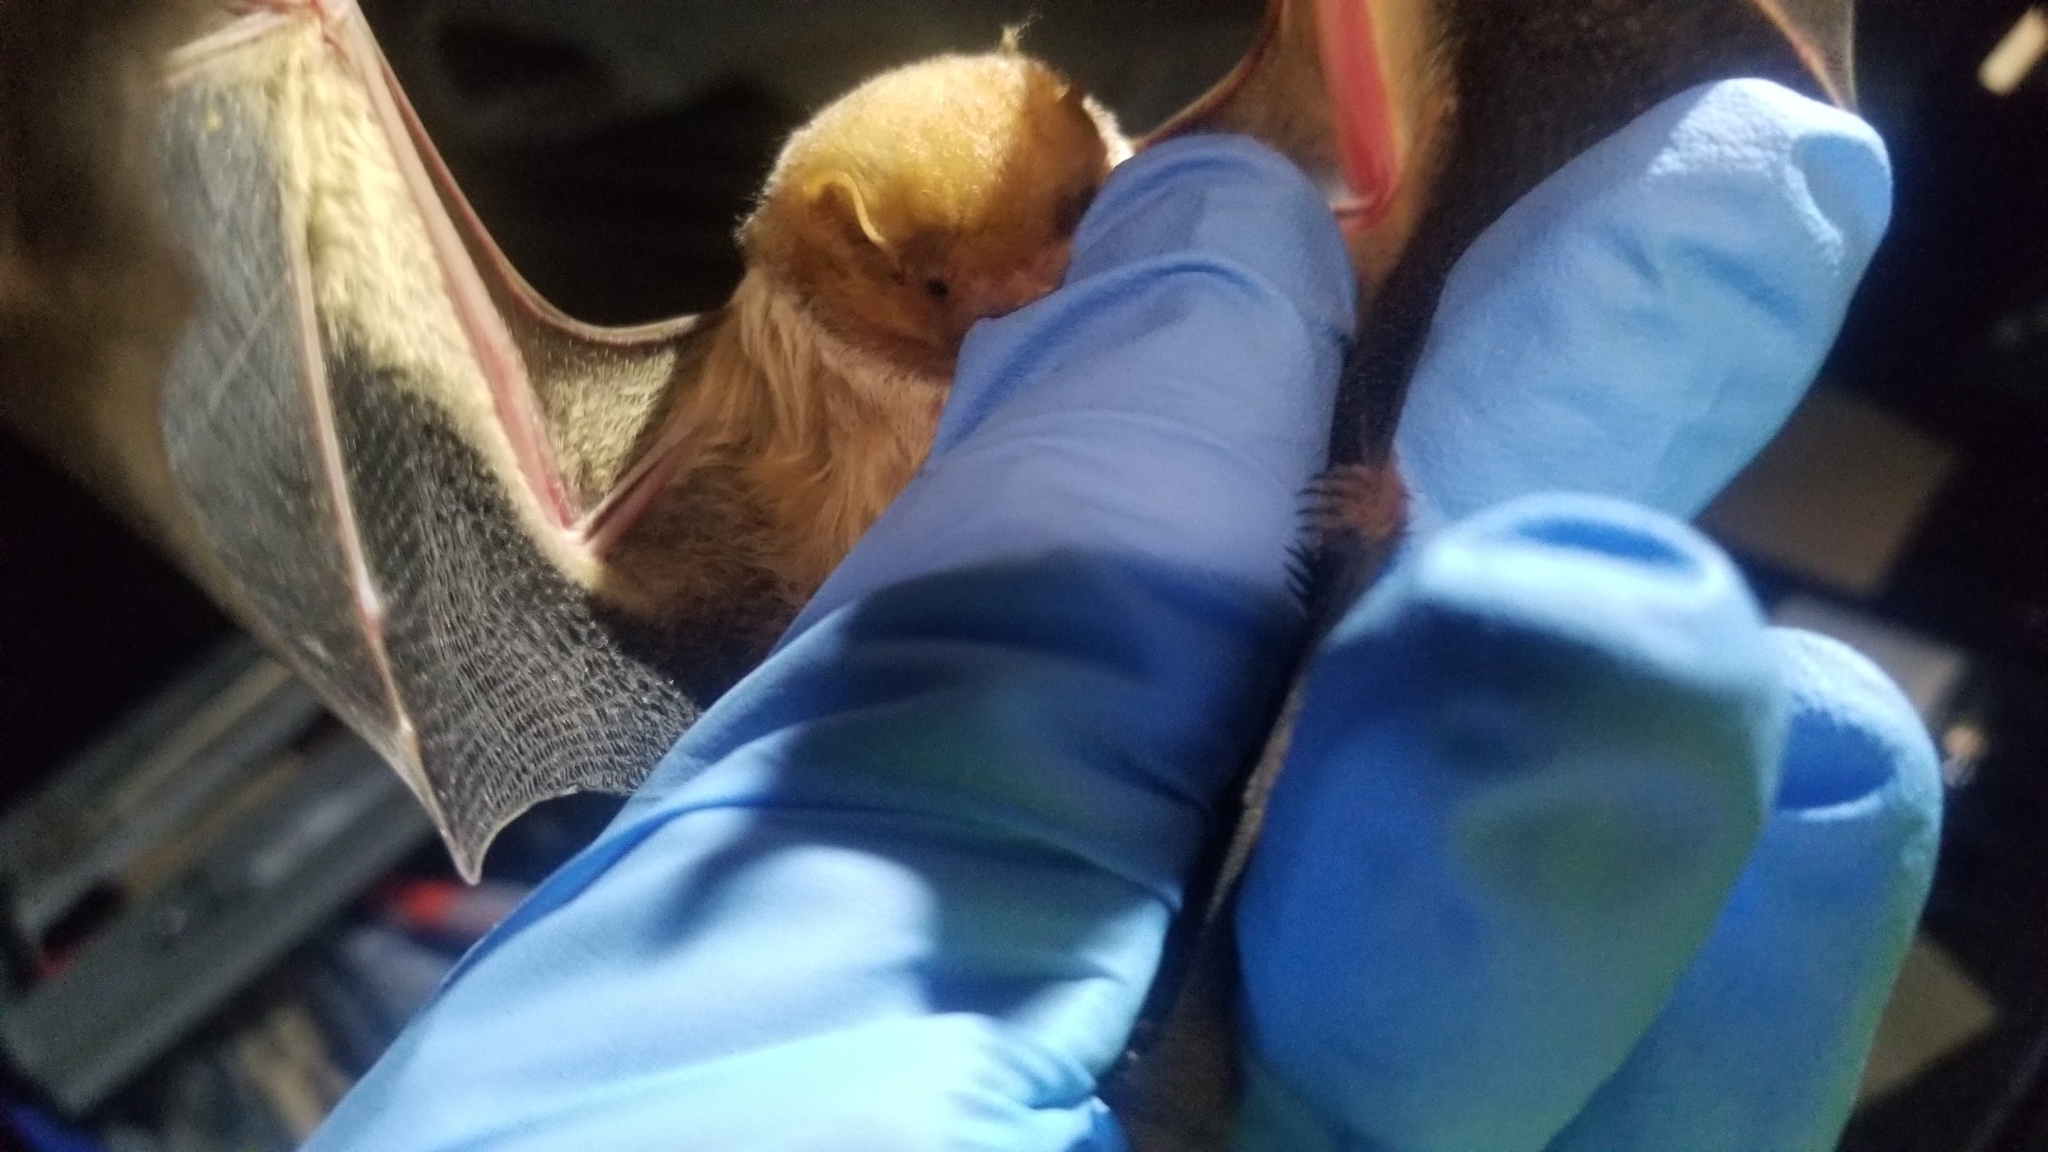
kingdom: Animalia
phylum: Chordata
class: Mammalia
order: Chiroptera
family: Vespertilionidae
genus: Lasiurus
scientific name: Lasiurus borealis
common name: Eastern red bat
